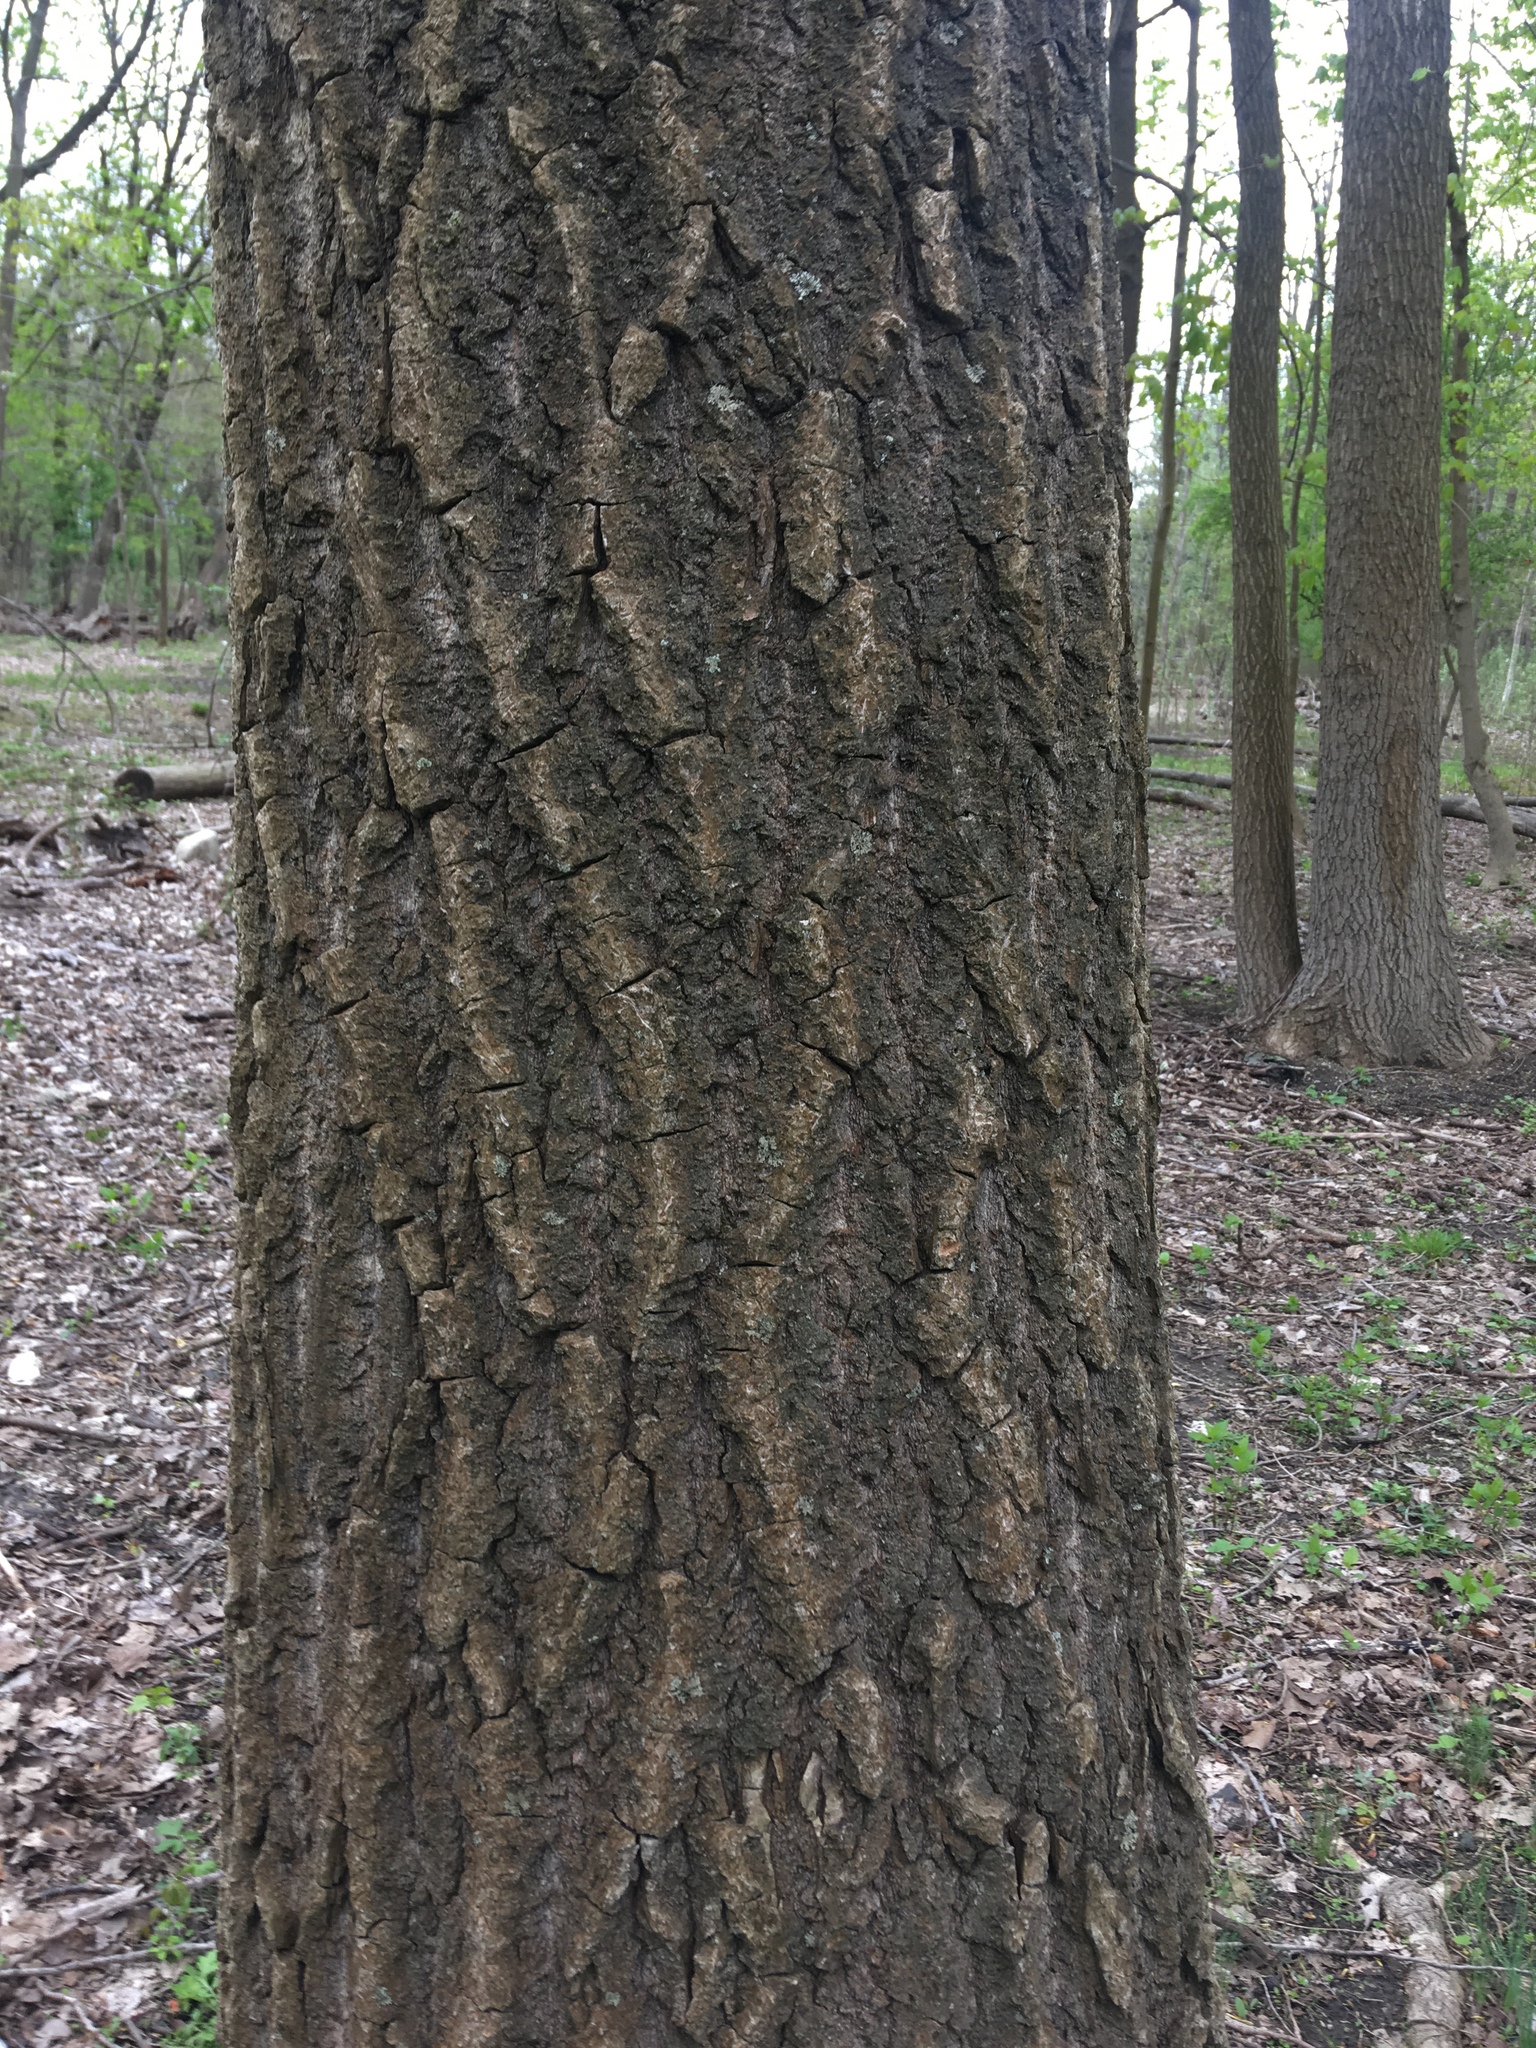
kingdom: Plantae
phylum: Tracheophyta
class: Magnoliopsida
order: Malpighiales
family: Salicaceae
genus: Populus
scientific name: Populus deltoides
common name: Eastern cottonwood
